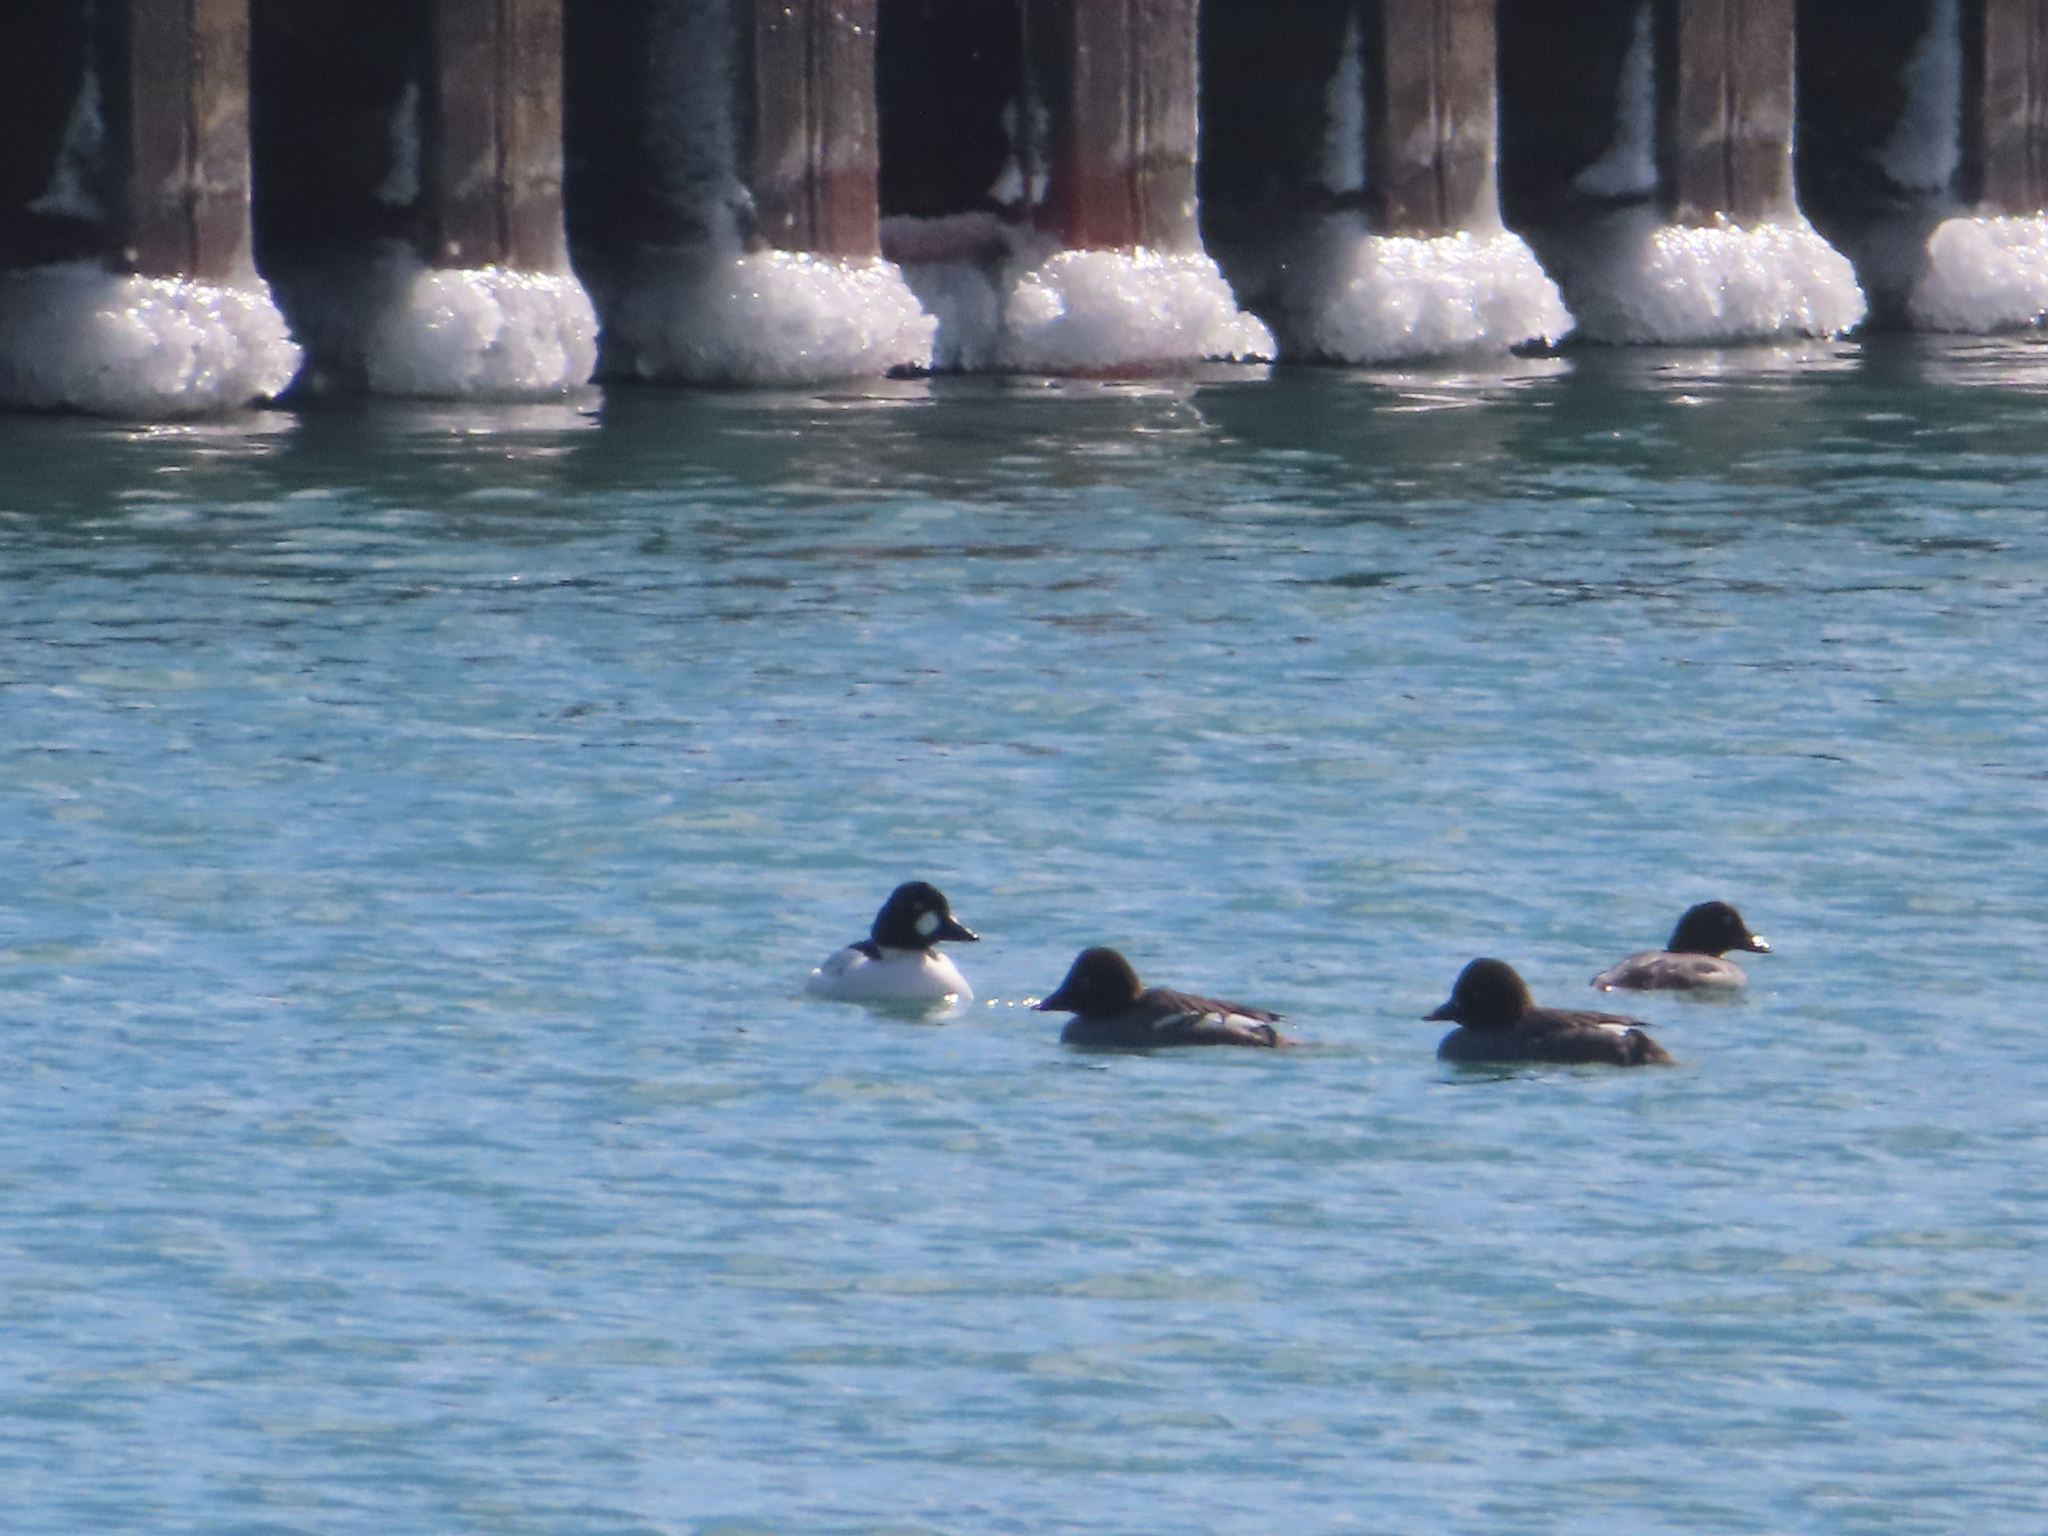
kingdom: Animalia
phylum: Chordata
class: Aves
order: Anseriformes
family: Anatidae
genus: Bucephala
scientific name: Bucephala clangula
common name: Common goldeneye
